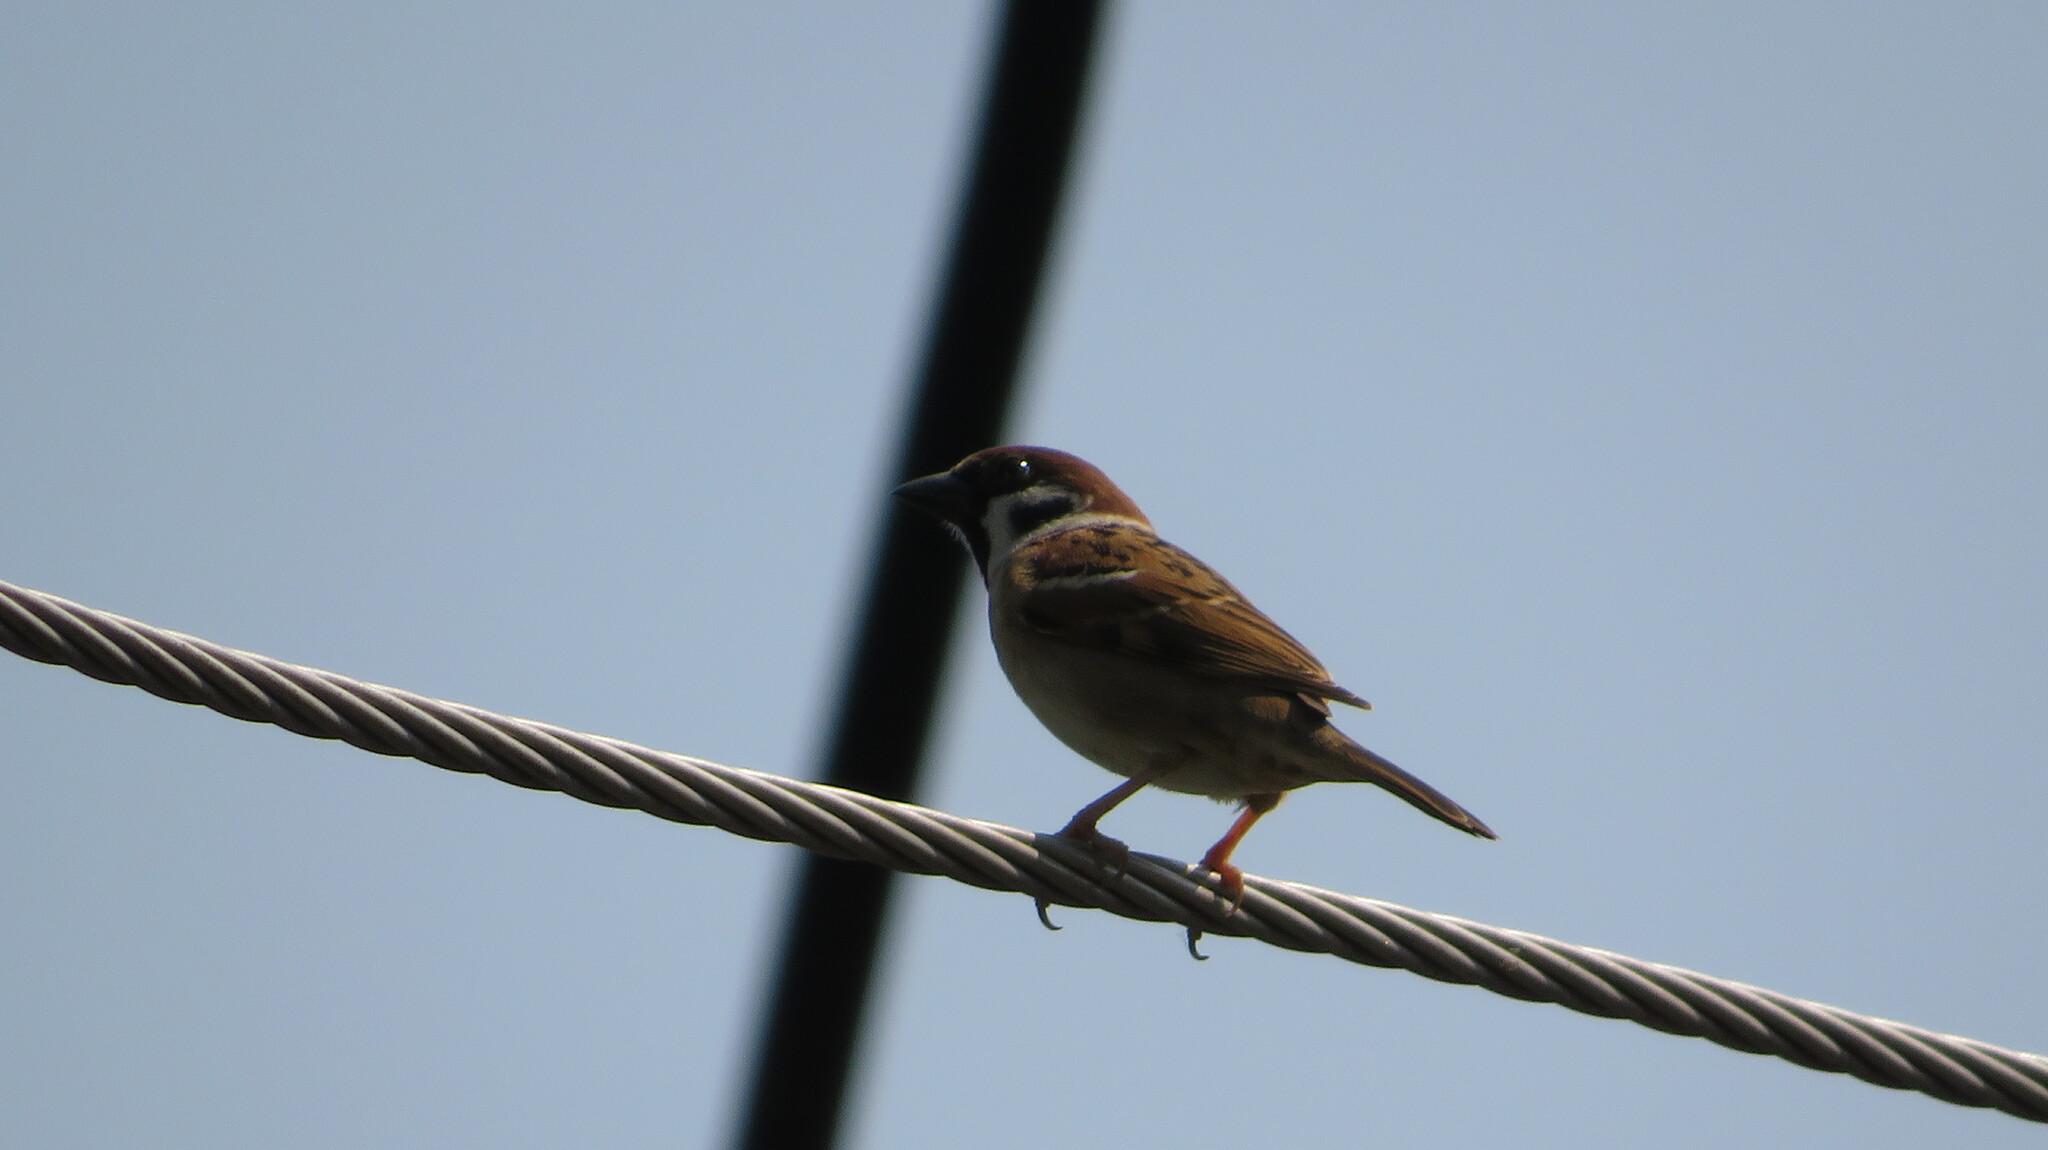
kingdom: Animalia
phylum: Chordata
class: Aves
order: Passeriformes
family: Passeridae
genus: Passer
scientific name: Passer montanus
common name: Eurasian tree sparrow
